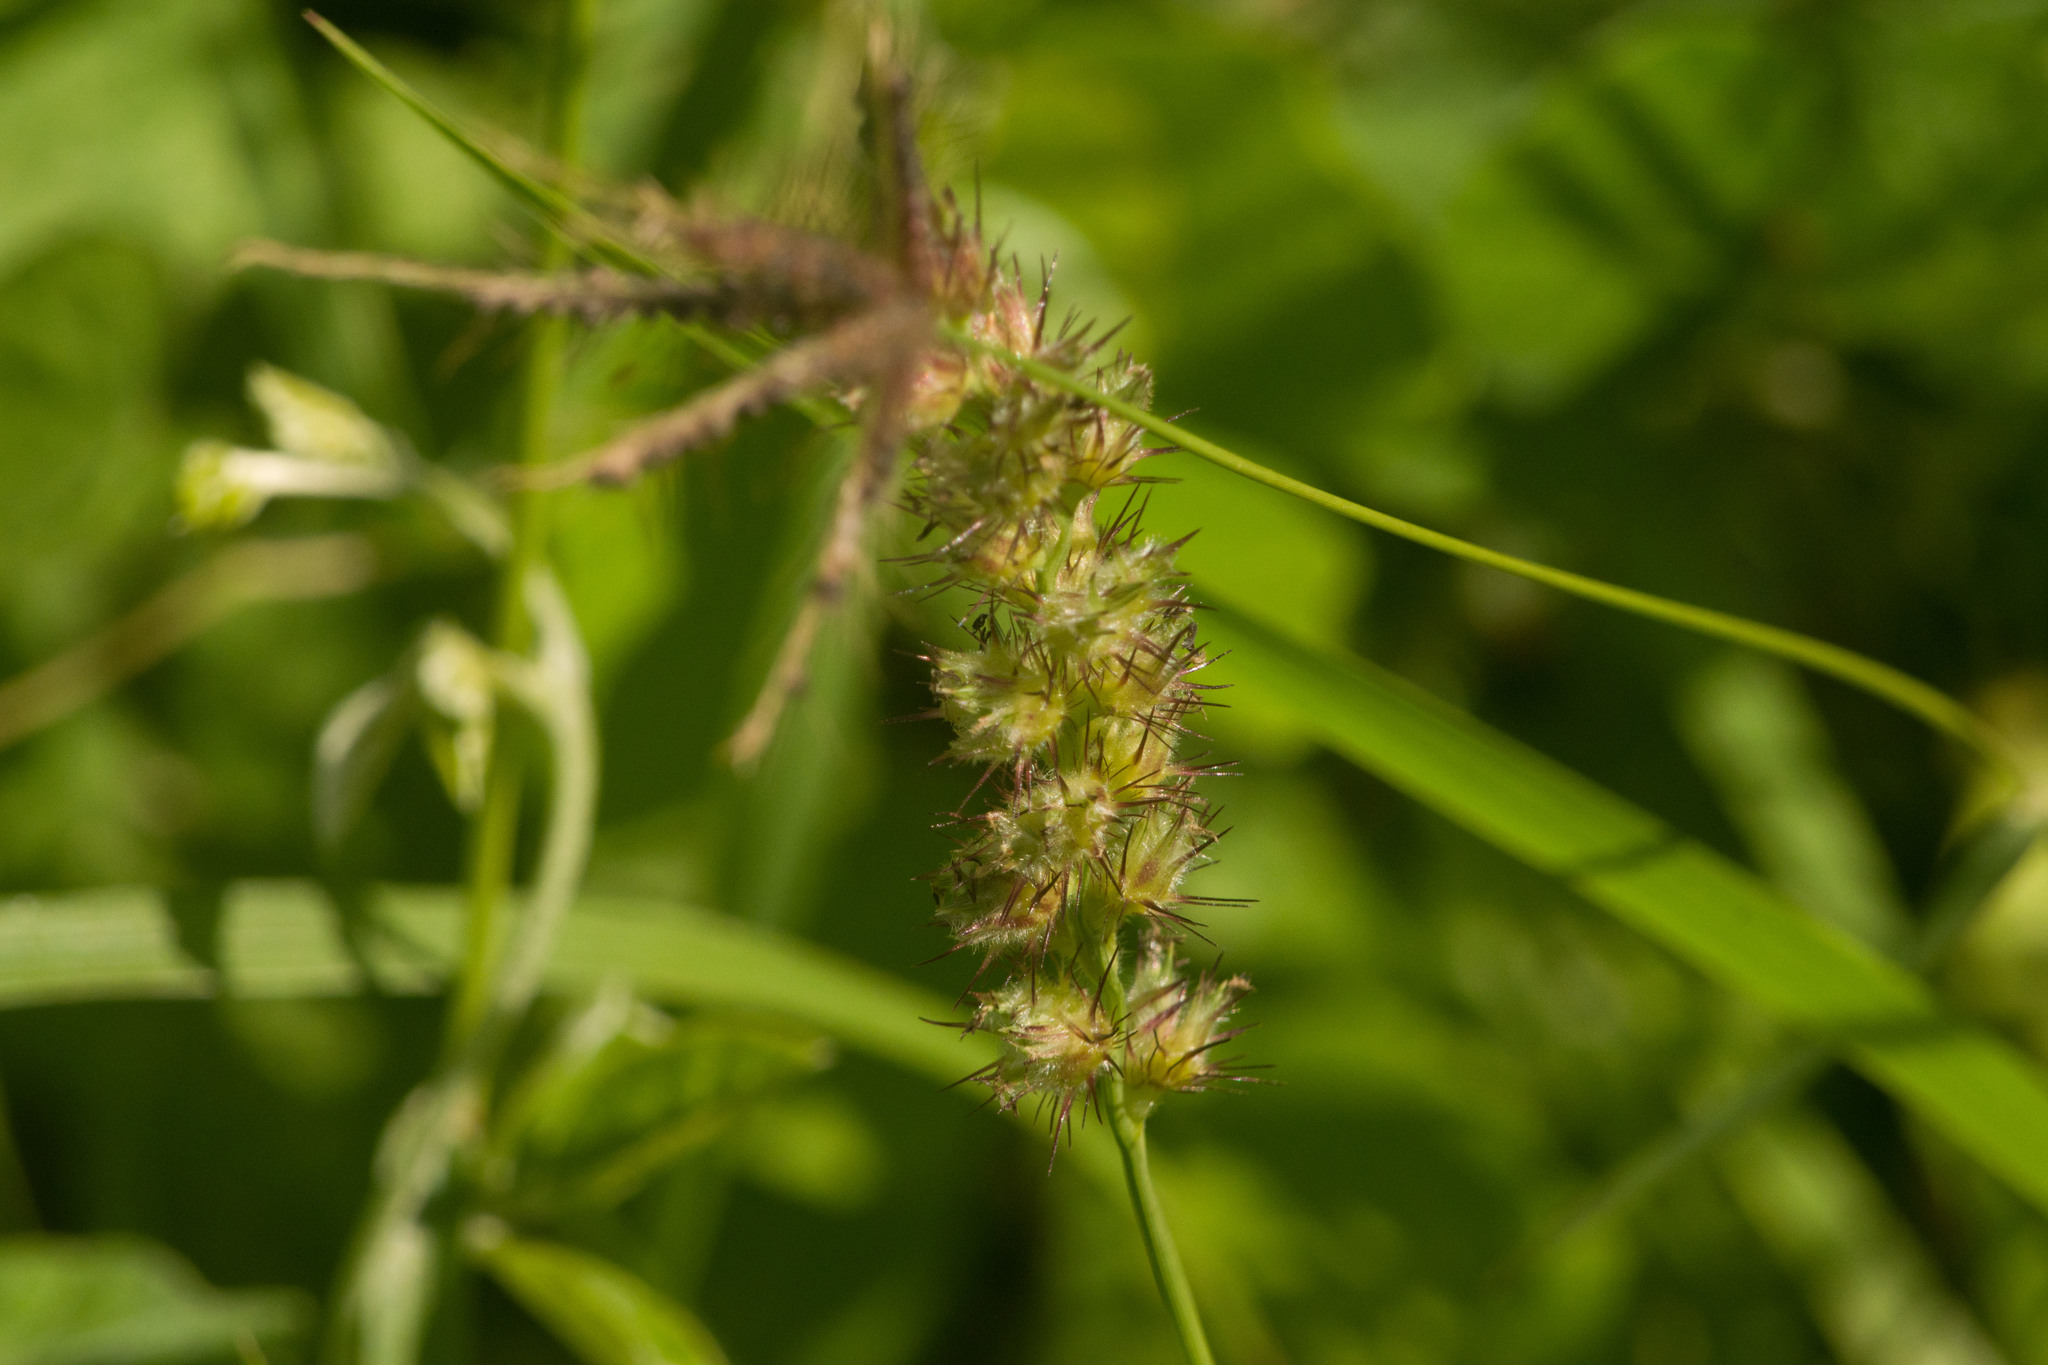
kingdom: Plantae
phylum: Tracheophyta
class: Liliopsida
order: Poales
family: Poaceae
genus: Cenchrus
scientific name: Cenchrus echinatus
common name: Southern sandbur
